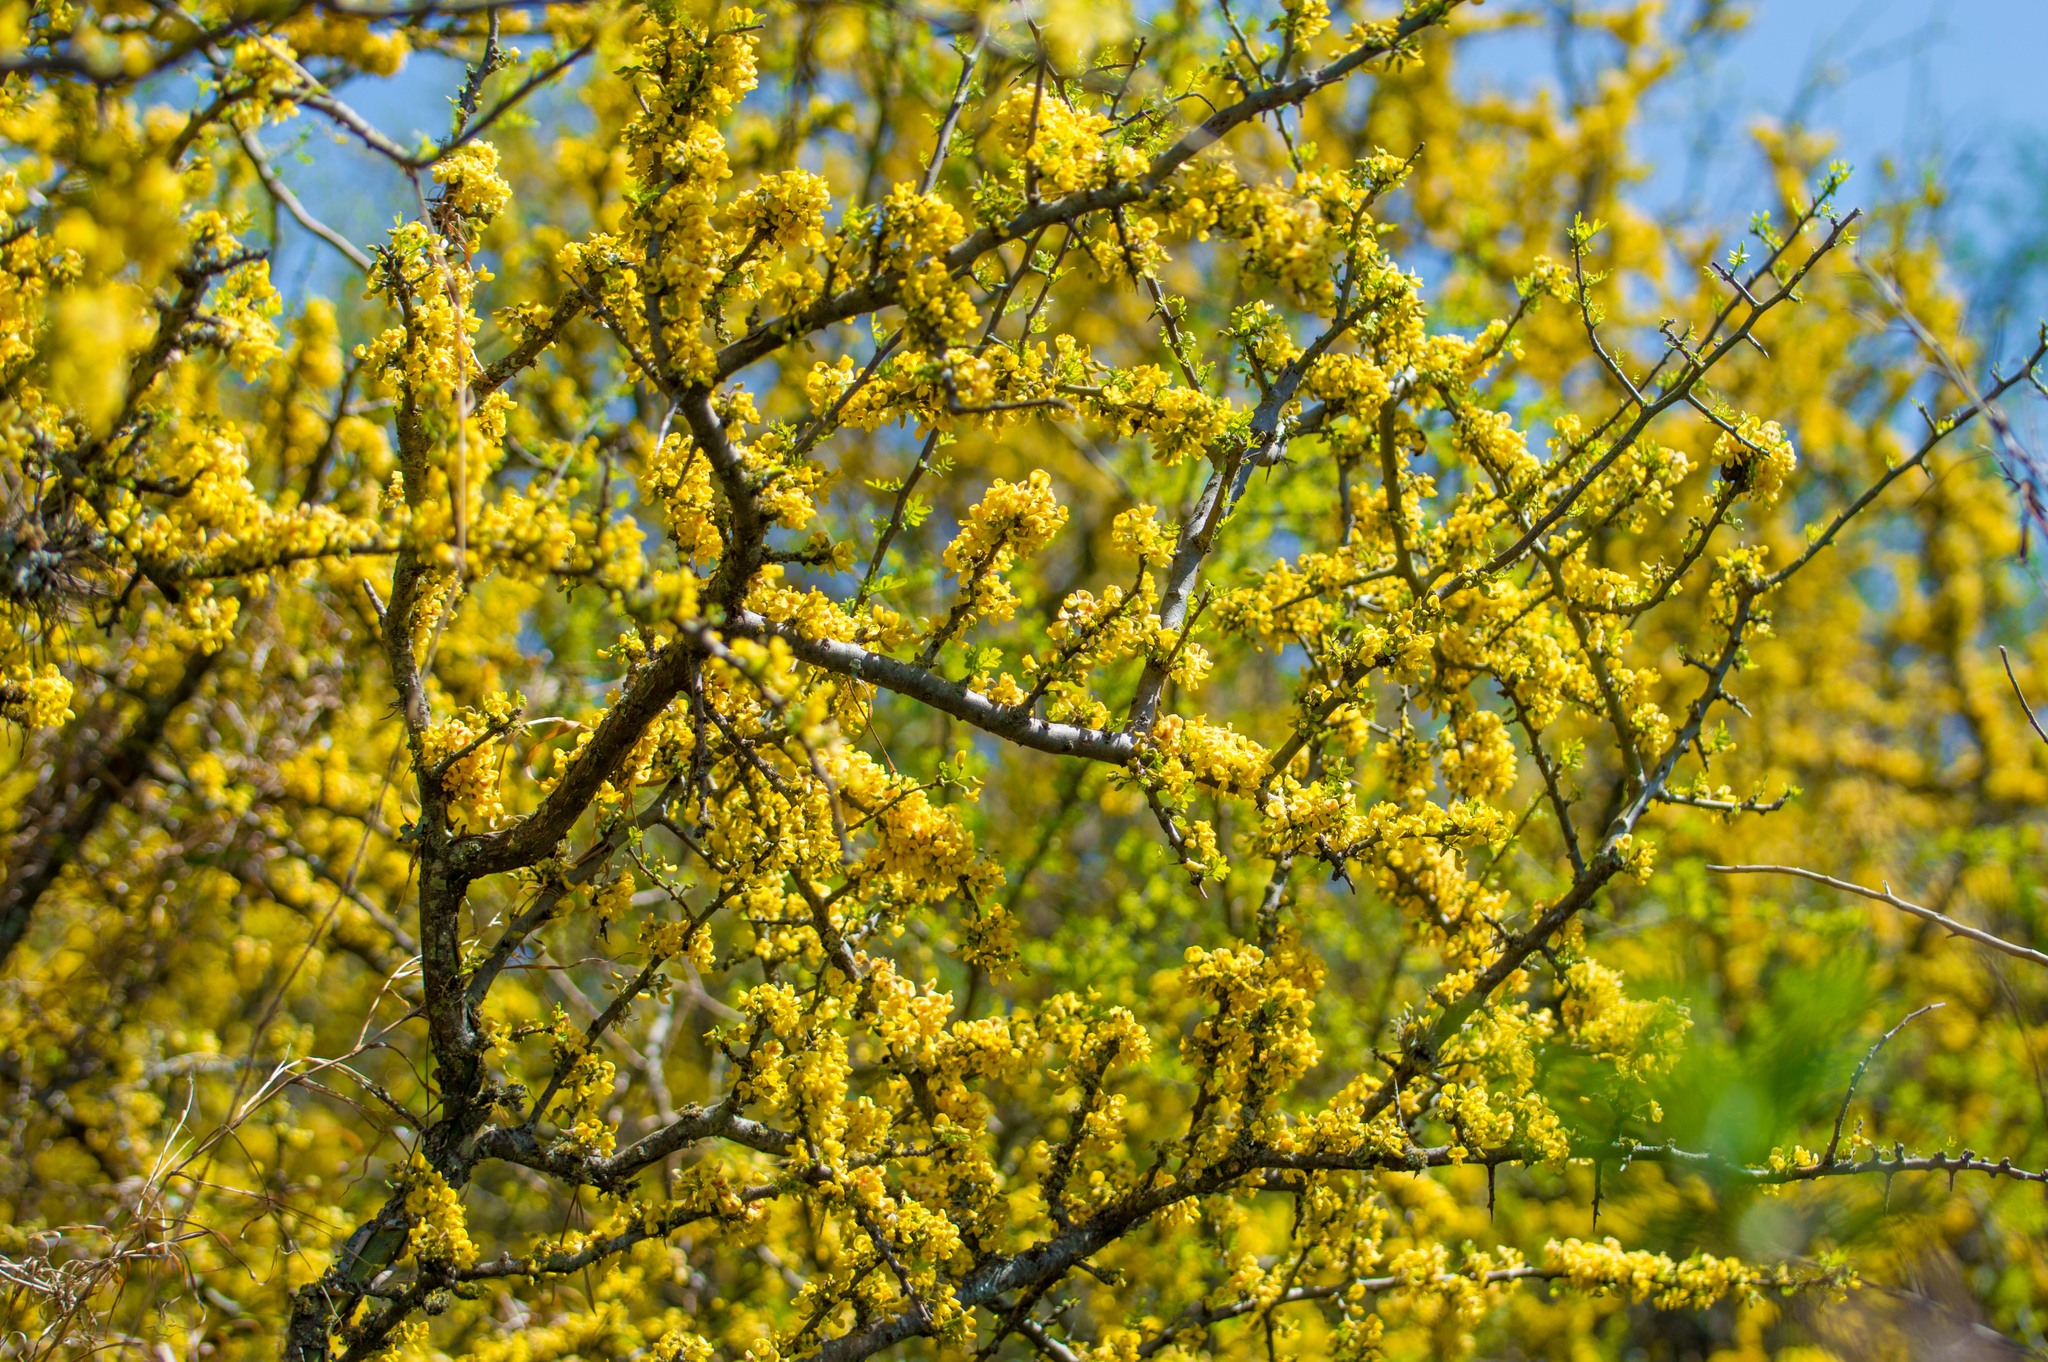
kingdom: Plantae
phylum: Tracheophyta
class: Magnoliopsida
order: Fabales
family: Fabaceae
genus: Geoffroea
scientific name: Geoffroea decorticans
